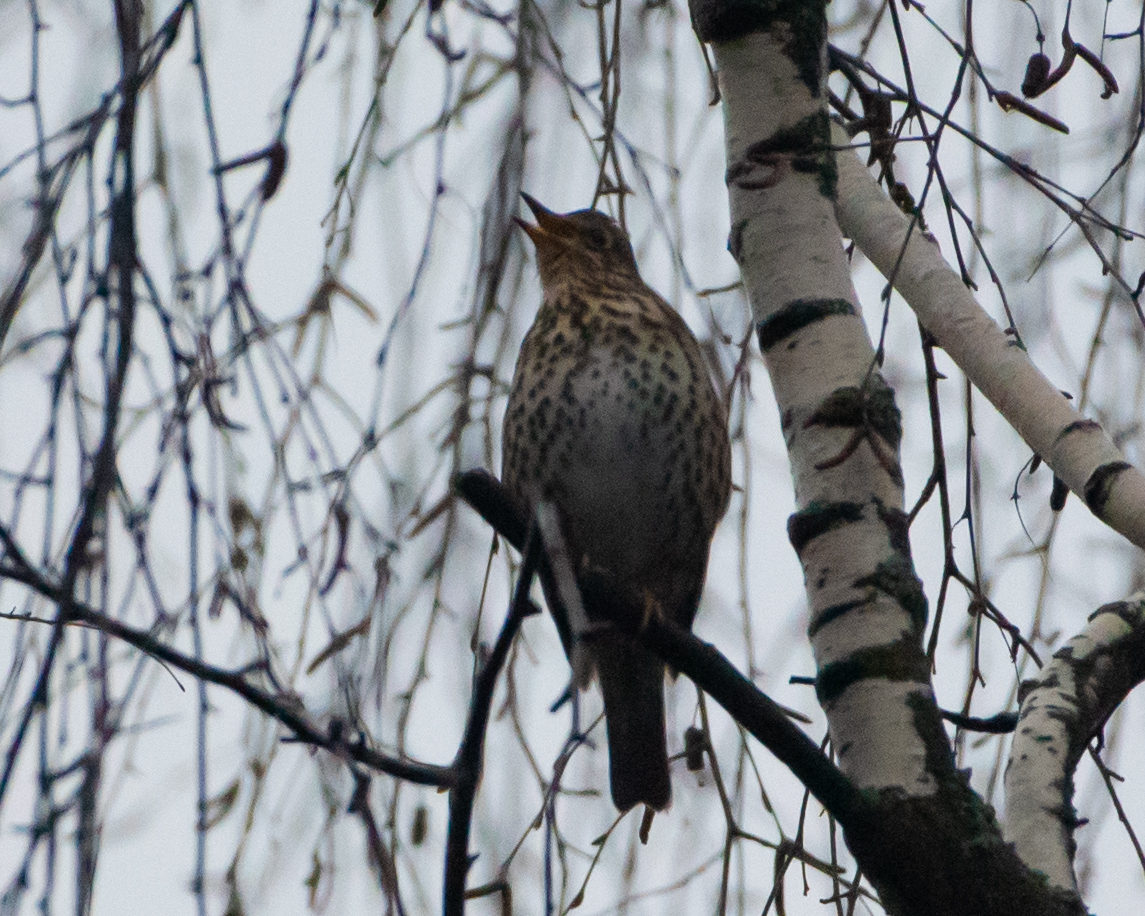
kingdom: Animalia
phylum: Chordata
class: Aves
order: Passeriformes
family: Turdidae
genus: Turdus
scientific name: Turdus philomelos
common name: Song thrush
